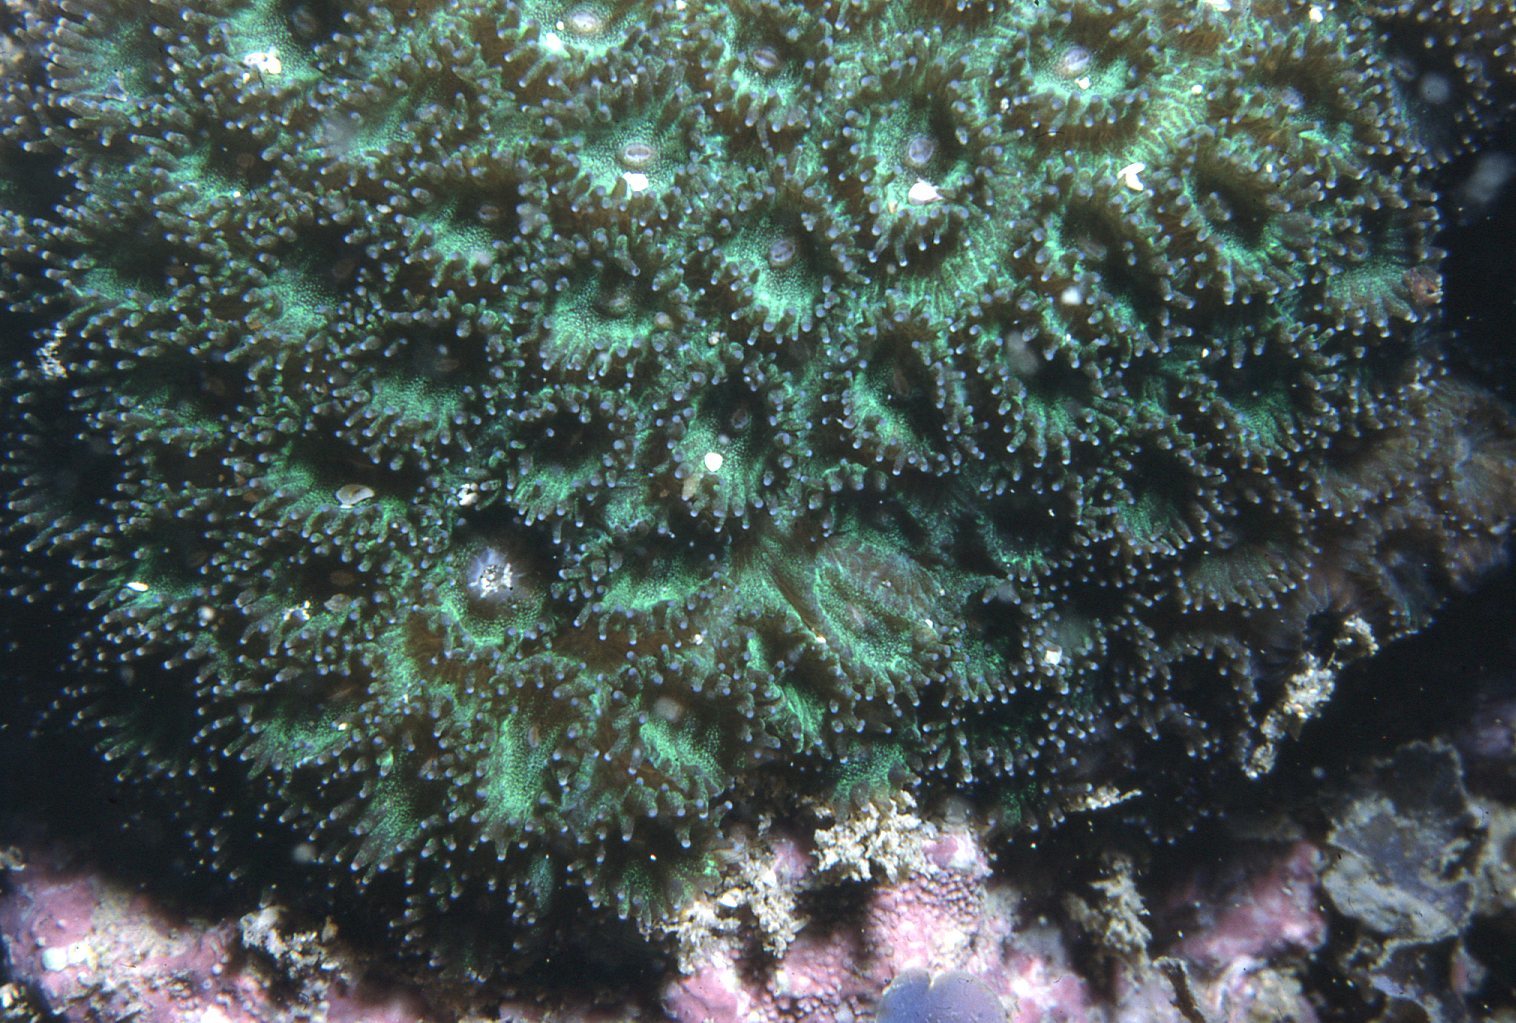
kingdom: Animalia
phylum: Cnidaria
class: Anthozoa
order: Scleractinia
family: Plesiastreidae
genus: Plesiastrea
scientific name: Plesiastrea versipora
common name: Small knob coral
